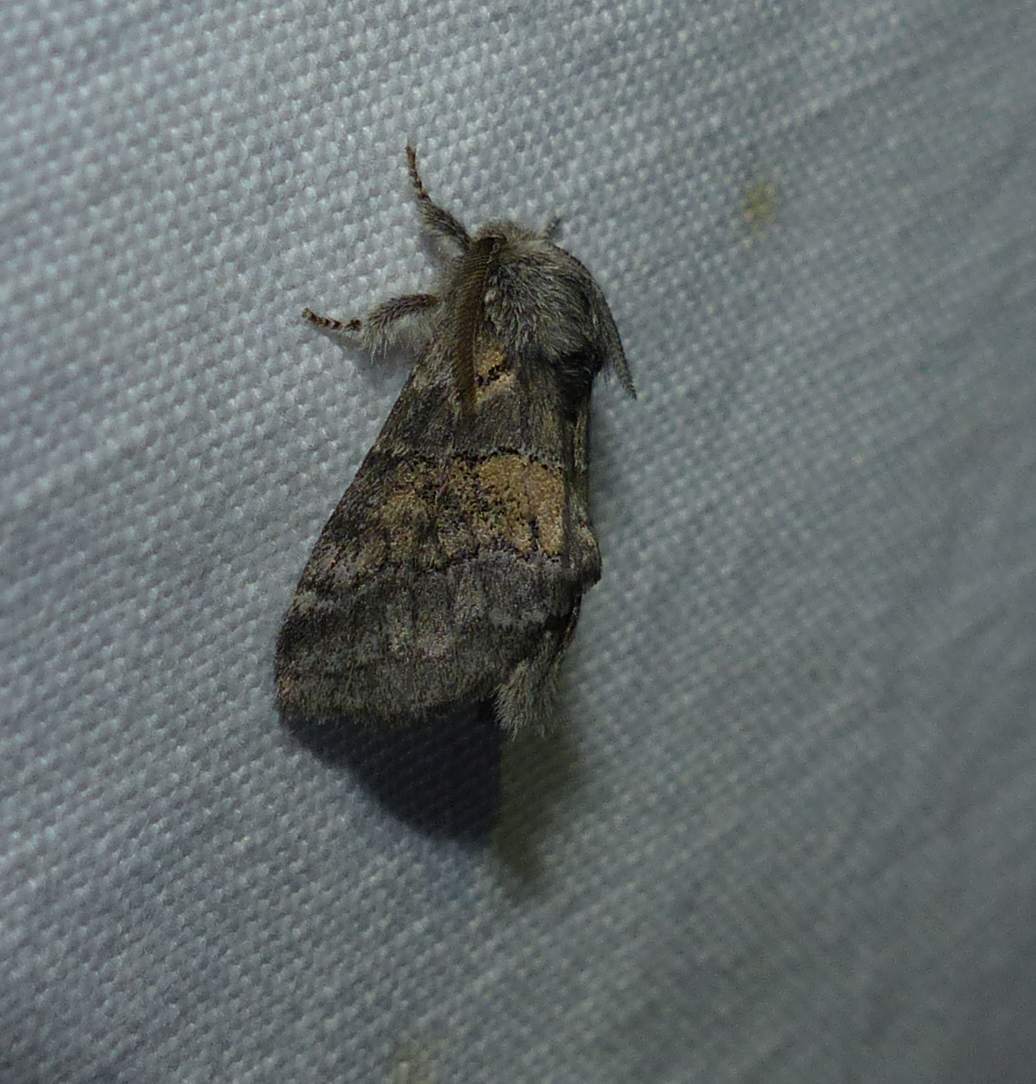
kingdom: Animalia
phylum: Arthropoda
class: Insecta
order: Lepidoptera
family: Notodontidae
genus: Gluphisia
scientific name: Gluphisia septentrionis
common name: Common gluphisia
